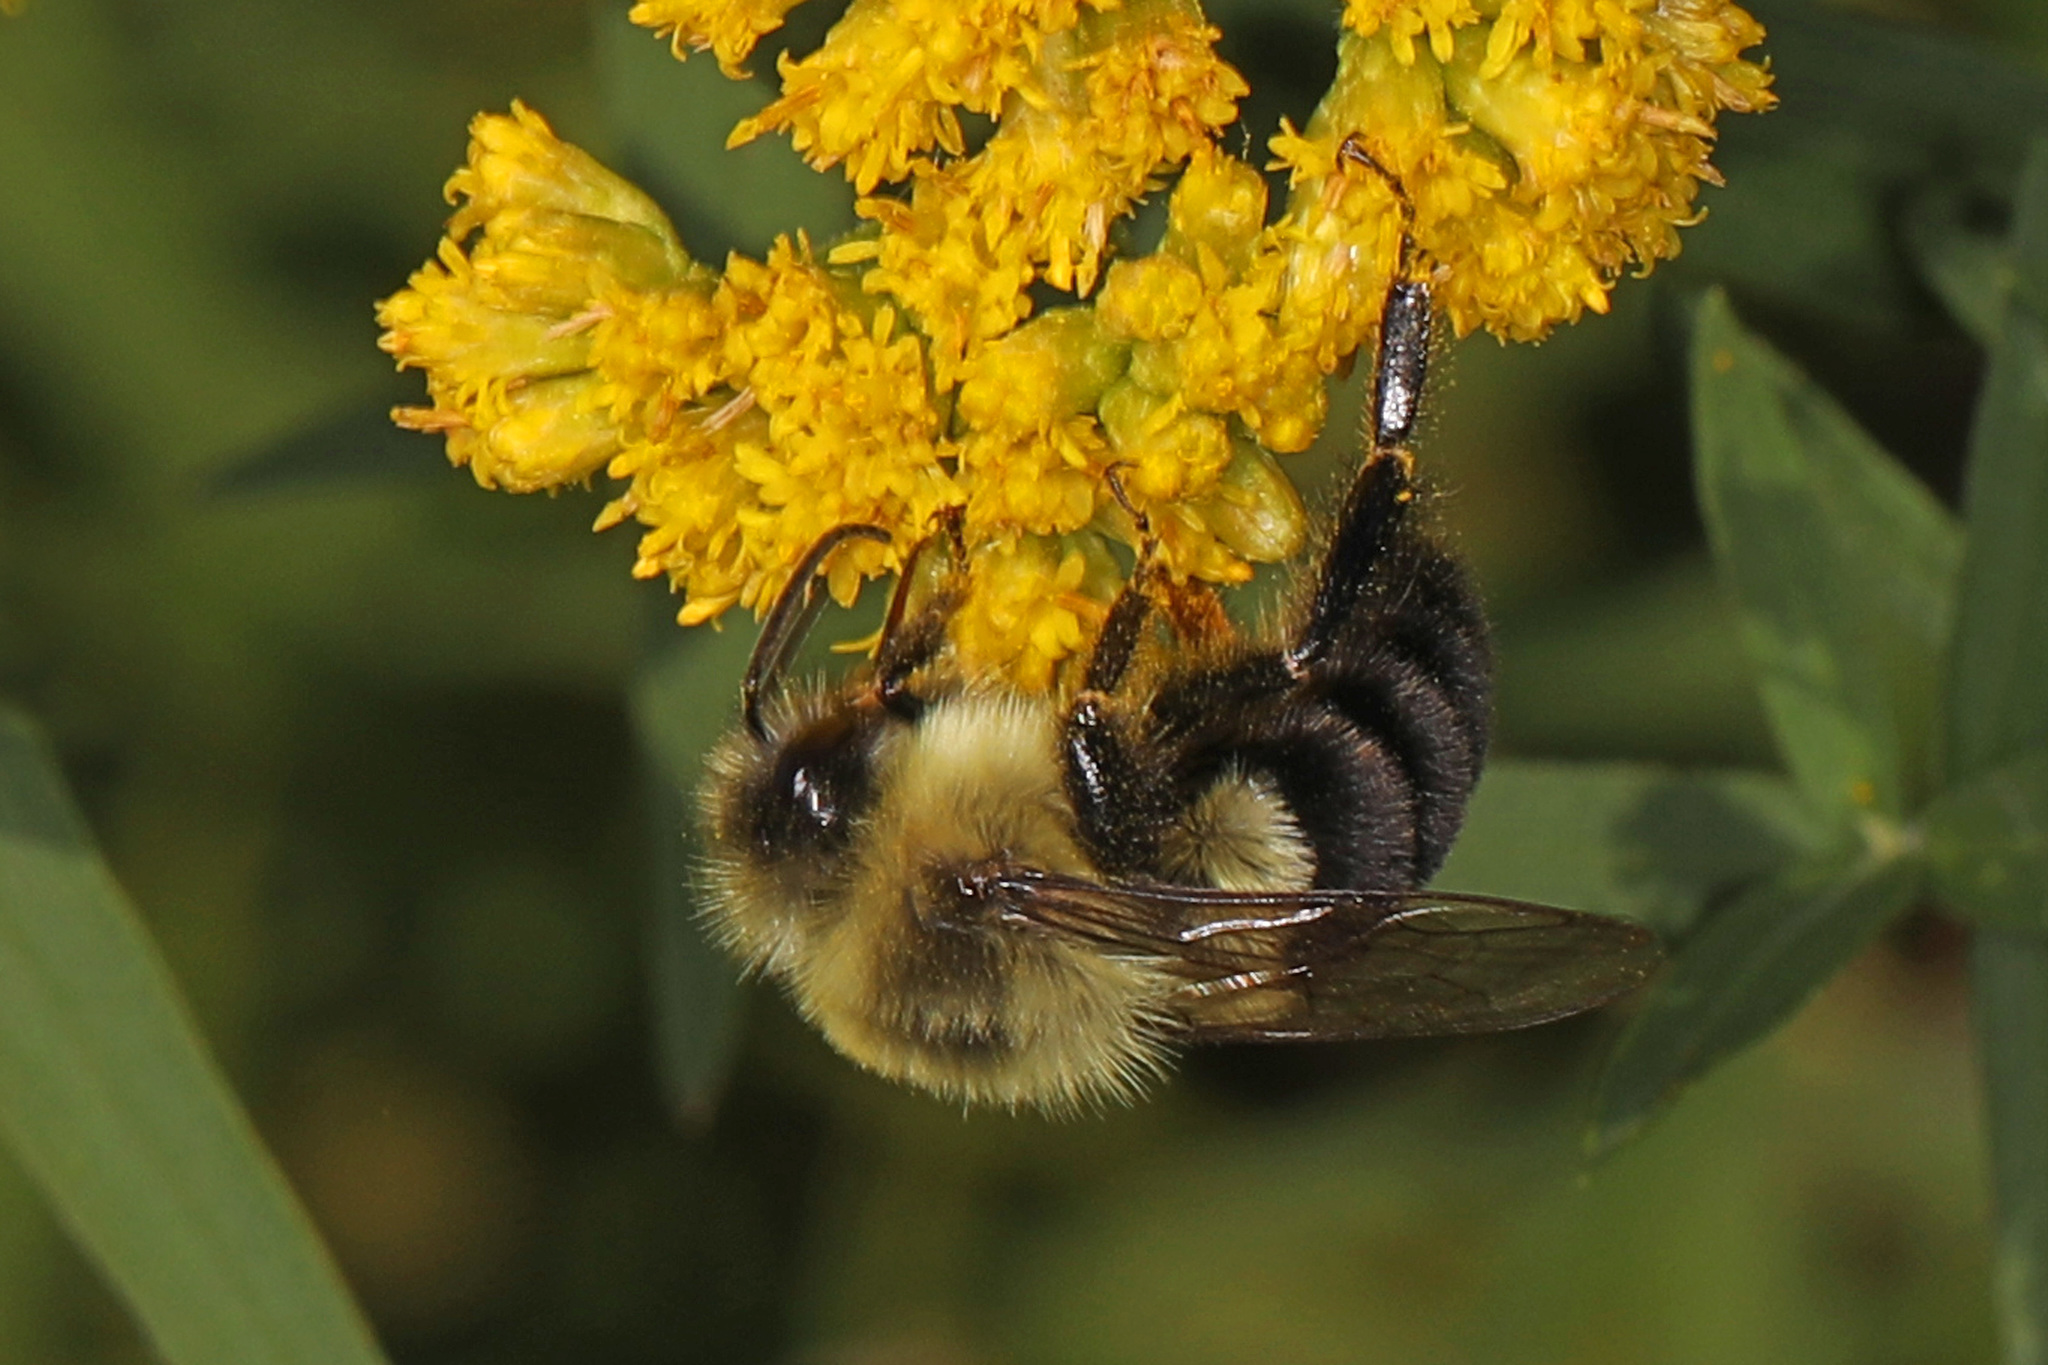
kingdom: Animalia
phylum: Arthropoda
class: Insecta
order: Hymenoptera
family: Apidae
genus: Bombus
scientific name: Bombus impatiens
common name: Common eastern bumble bee
